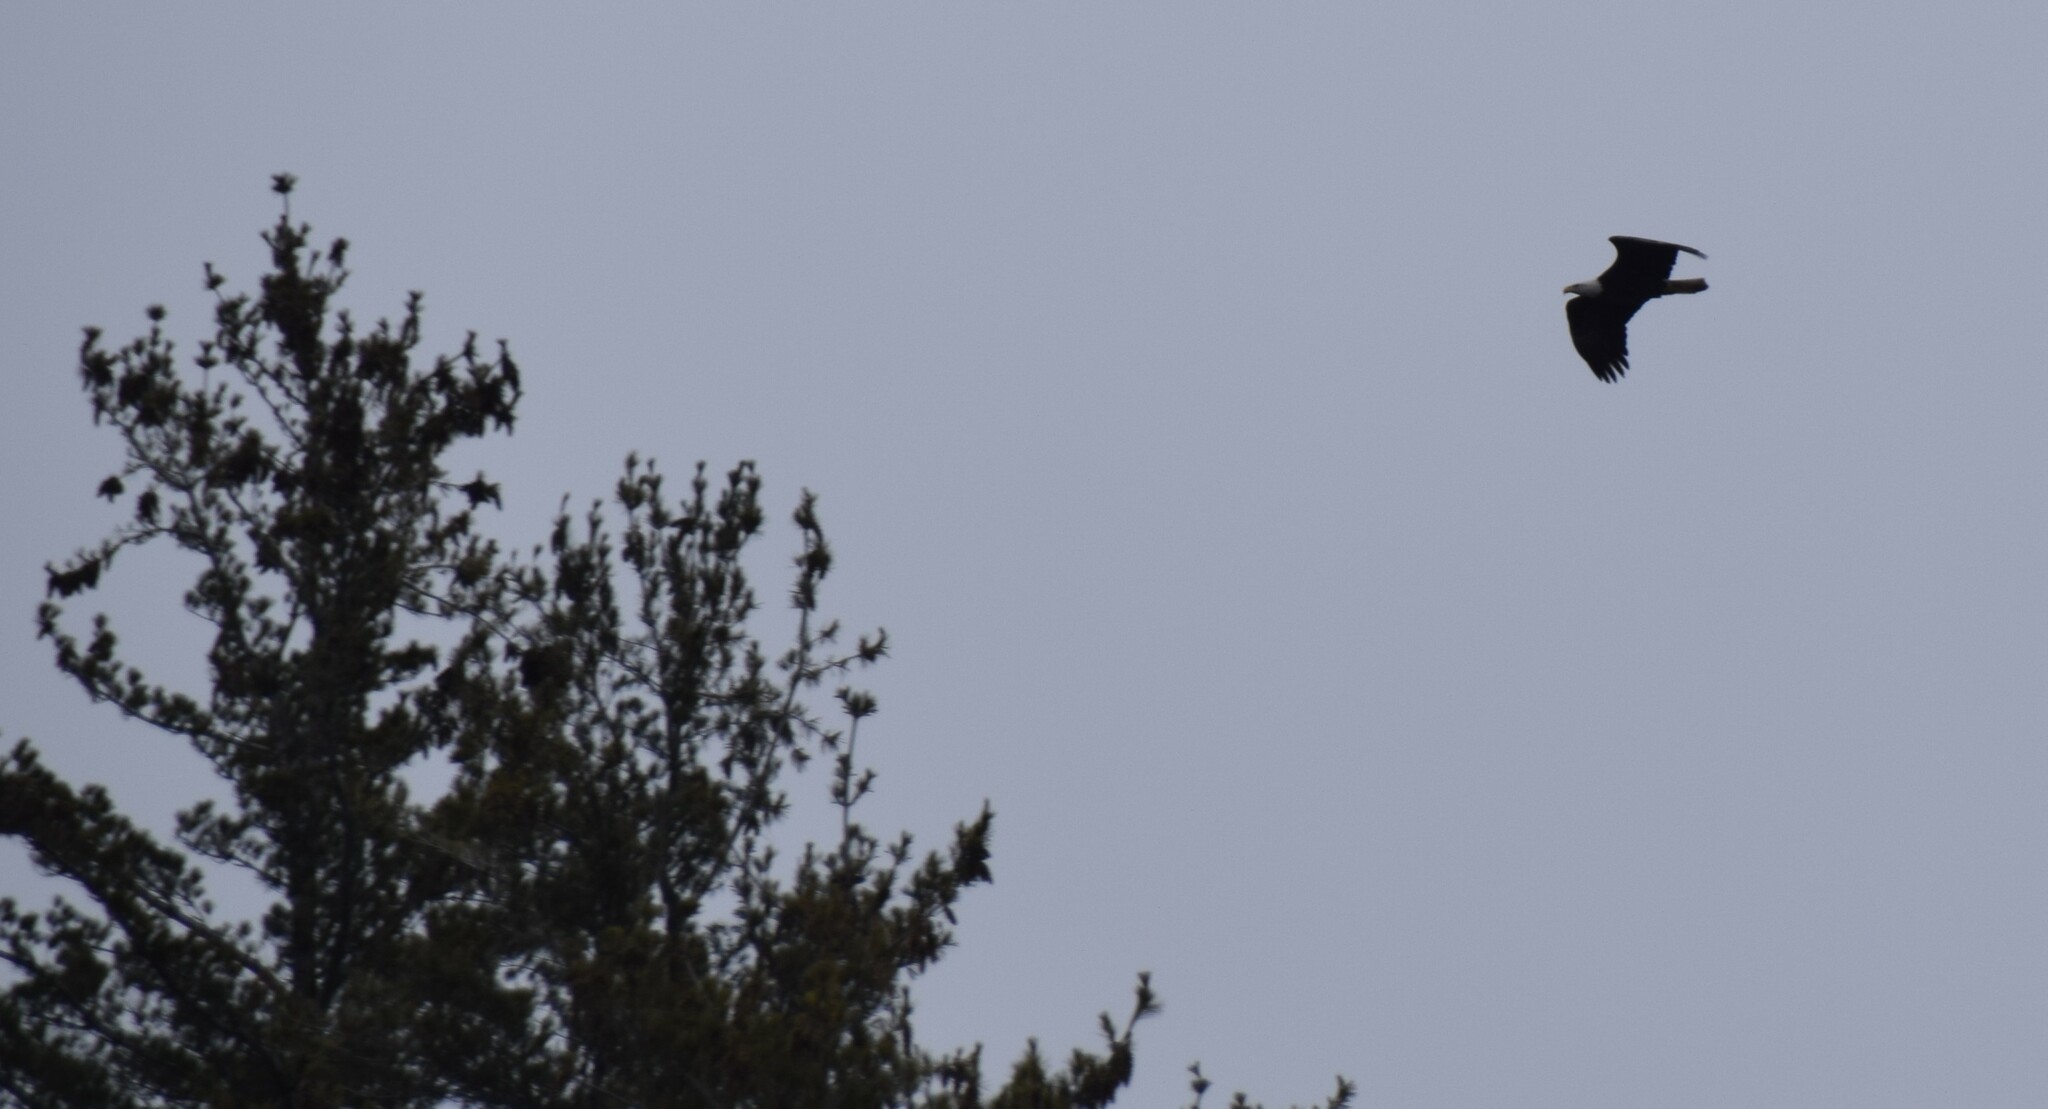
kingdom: Animalia
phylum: Chordata
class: Aves
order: Accipitriformes
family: Accipitridae
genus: Haliaeetus
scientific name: Haliaeetus leucocephalus
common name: Bald eagle
